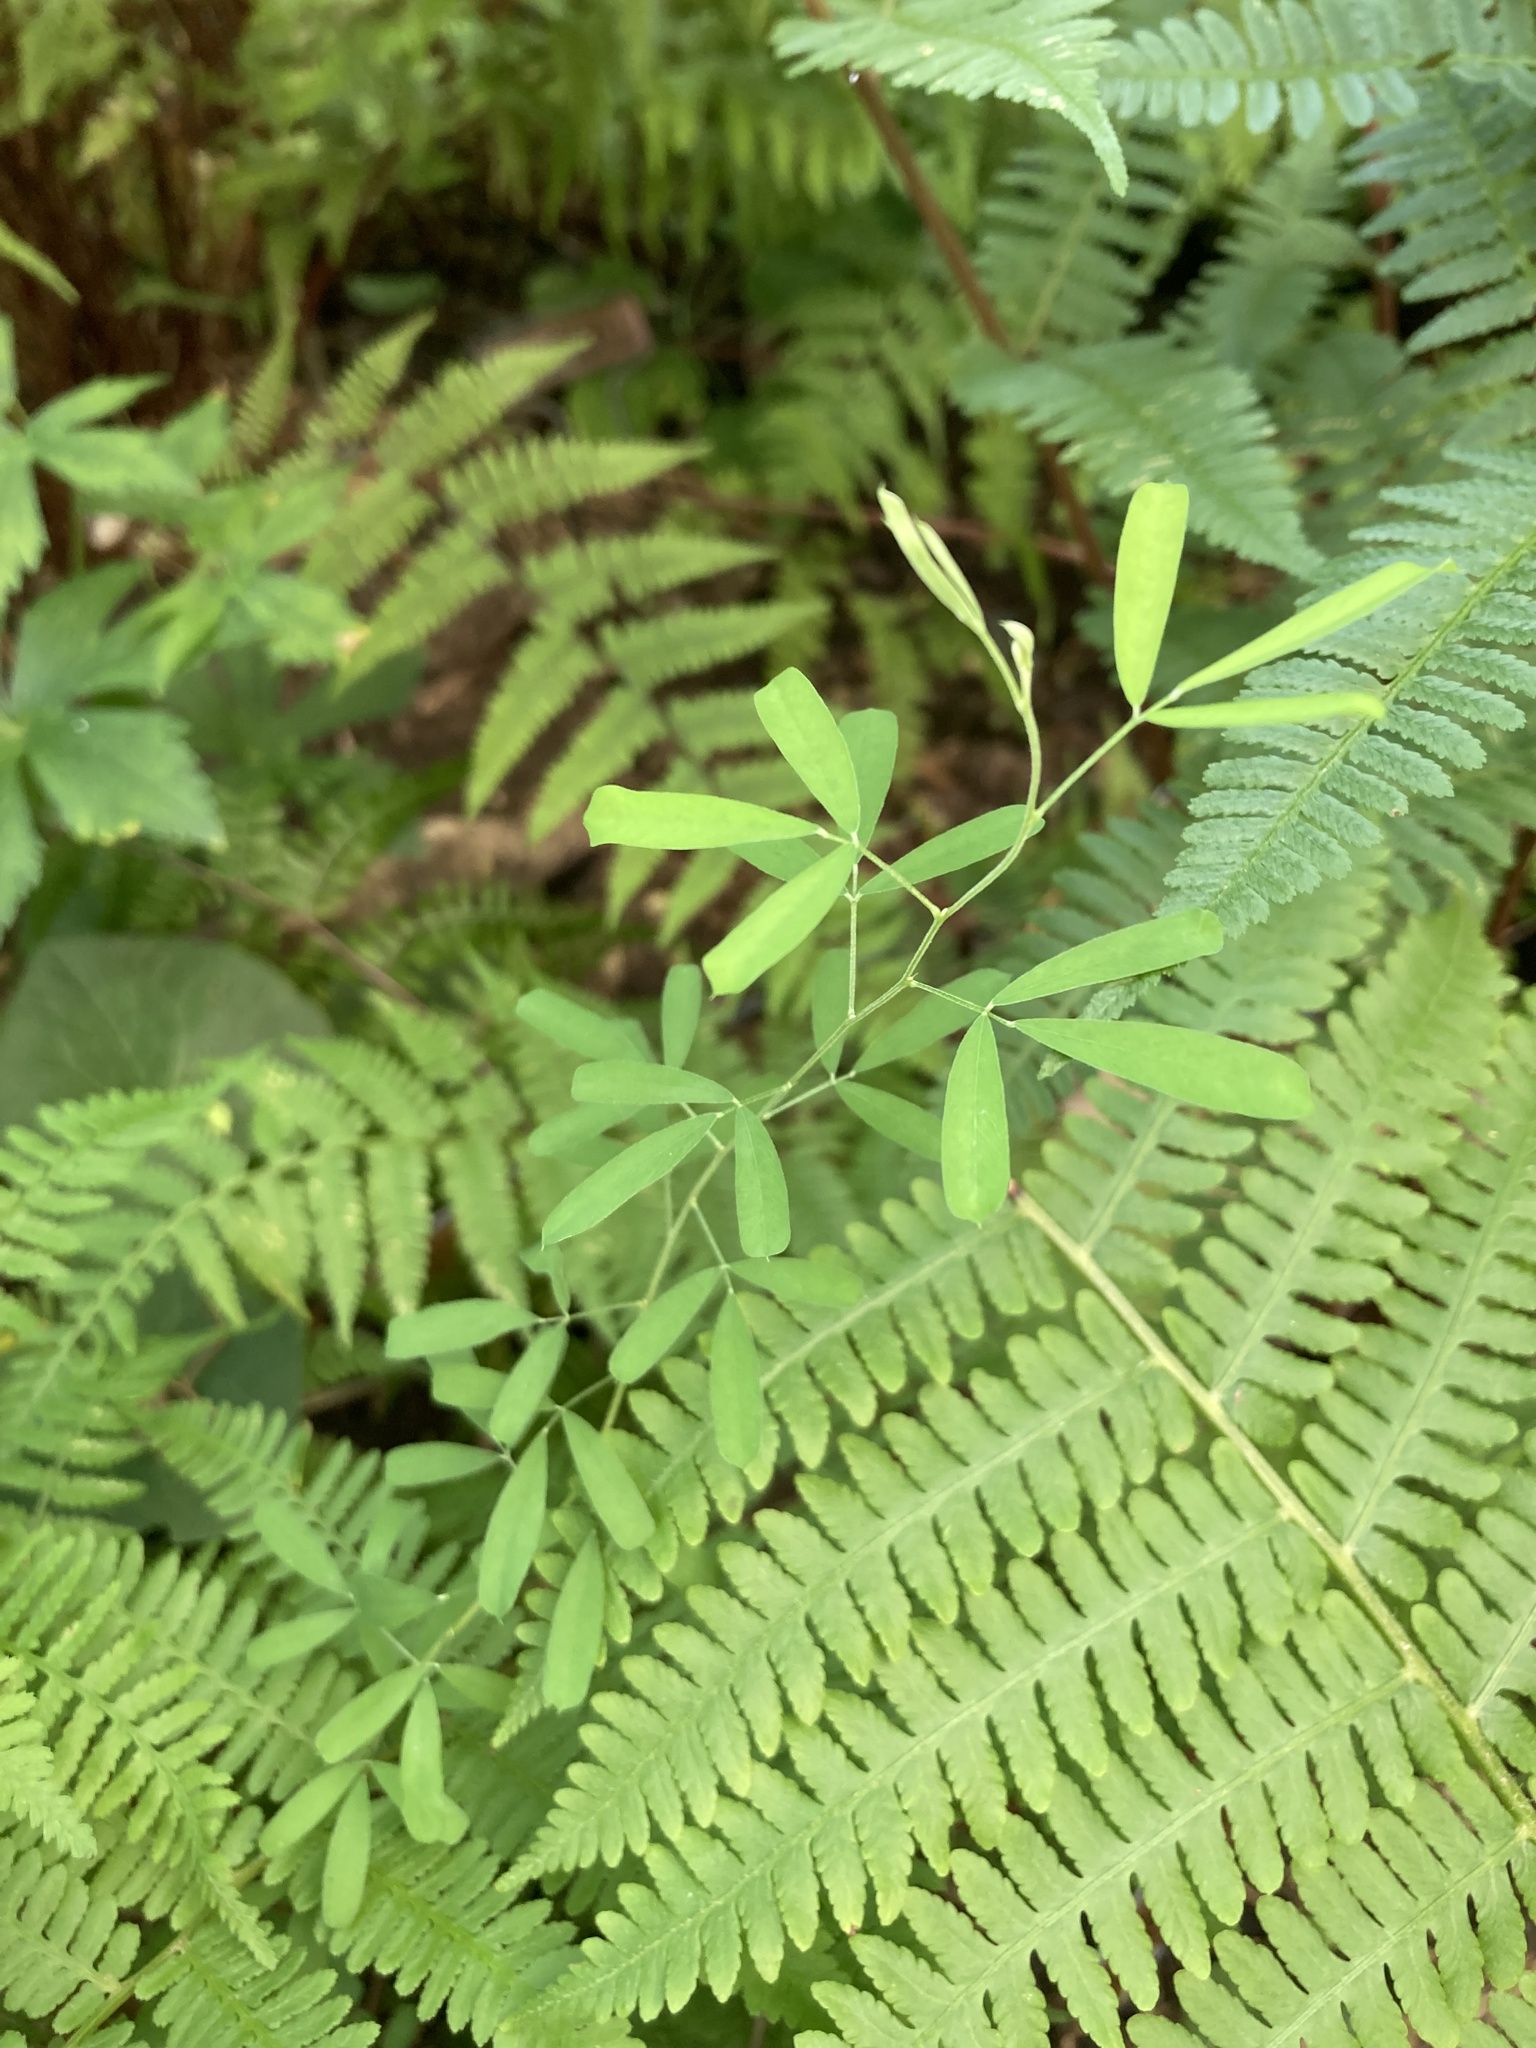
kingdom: Plantae
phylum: Tracheophyta
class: Magnoliopsida
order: Fabales
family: Fabaceae
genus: Lespedeza
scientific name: Lespedeza cuneata
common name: Chinese bush-clover
